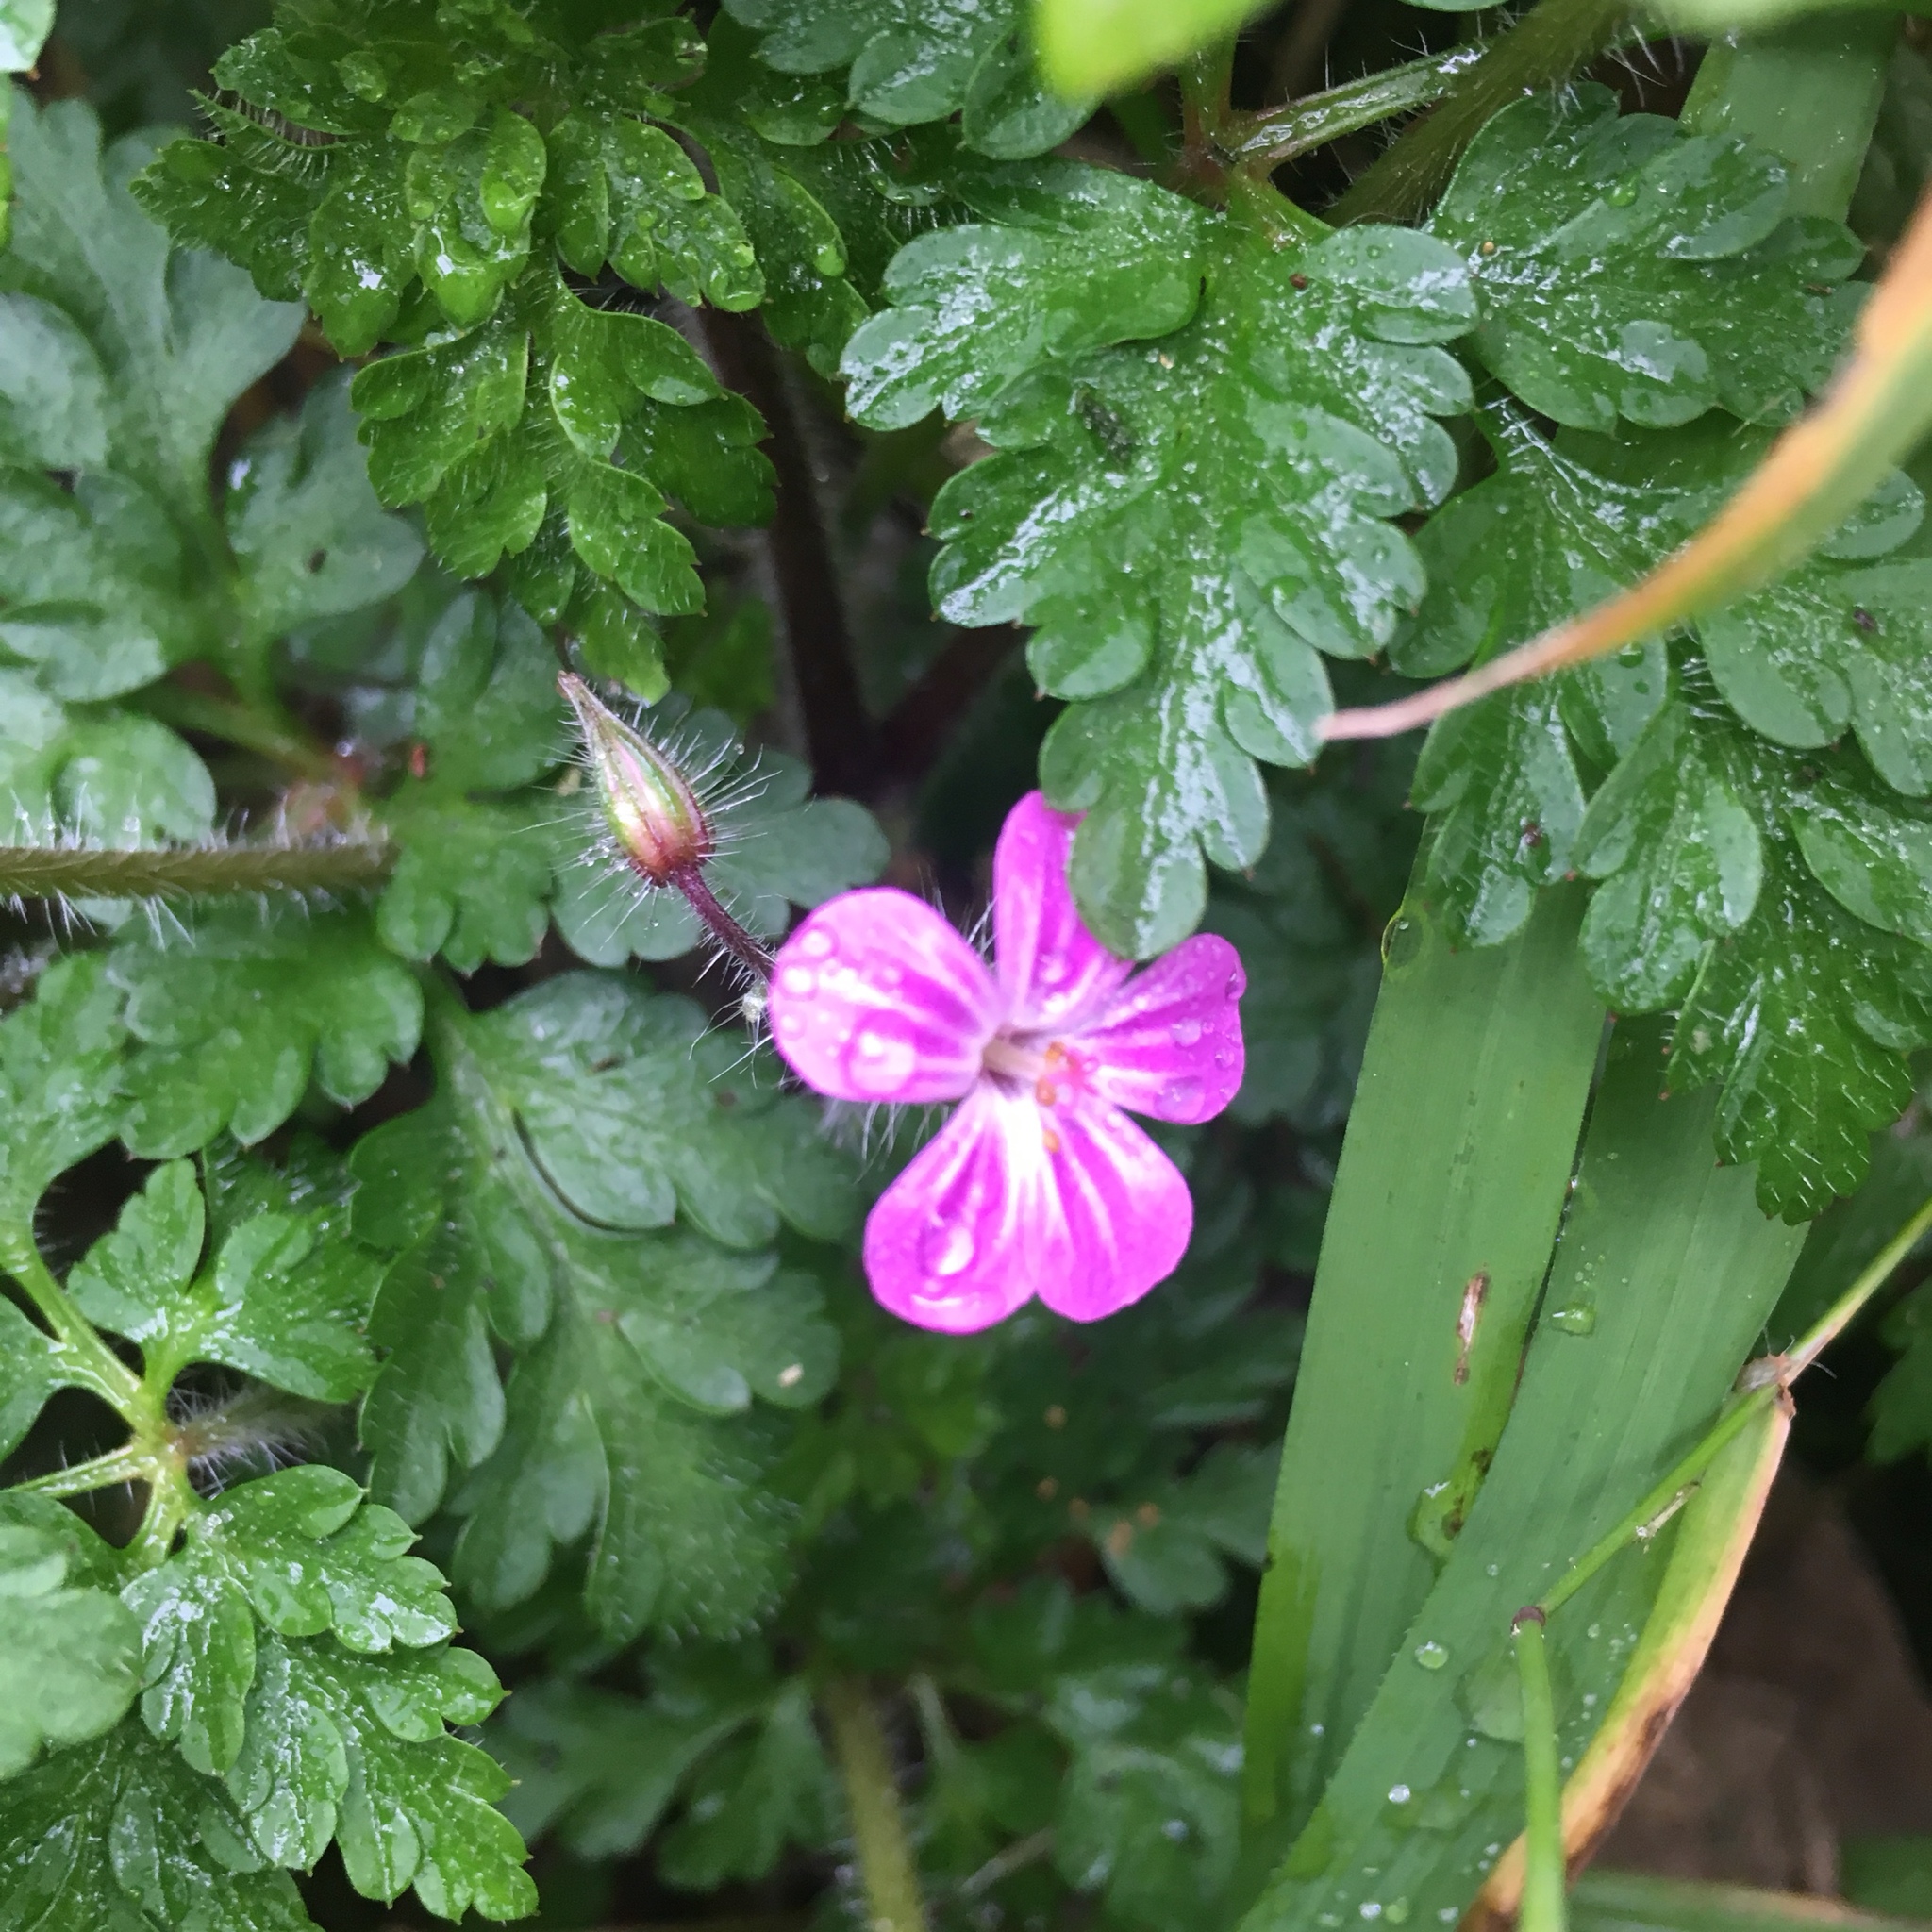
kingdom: Plantae
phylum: Tracheophyta
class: Magnoliopsida
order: Geraniales
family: Geraniaceae
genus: Geranium
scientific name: Geranium robertianum
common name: Herb-robert
